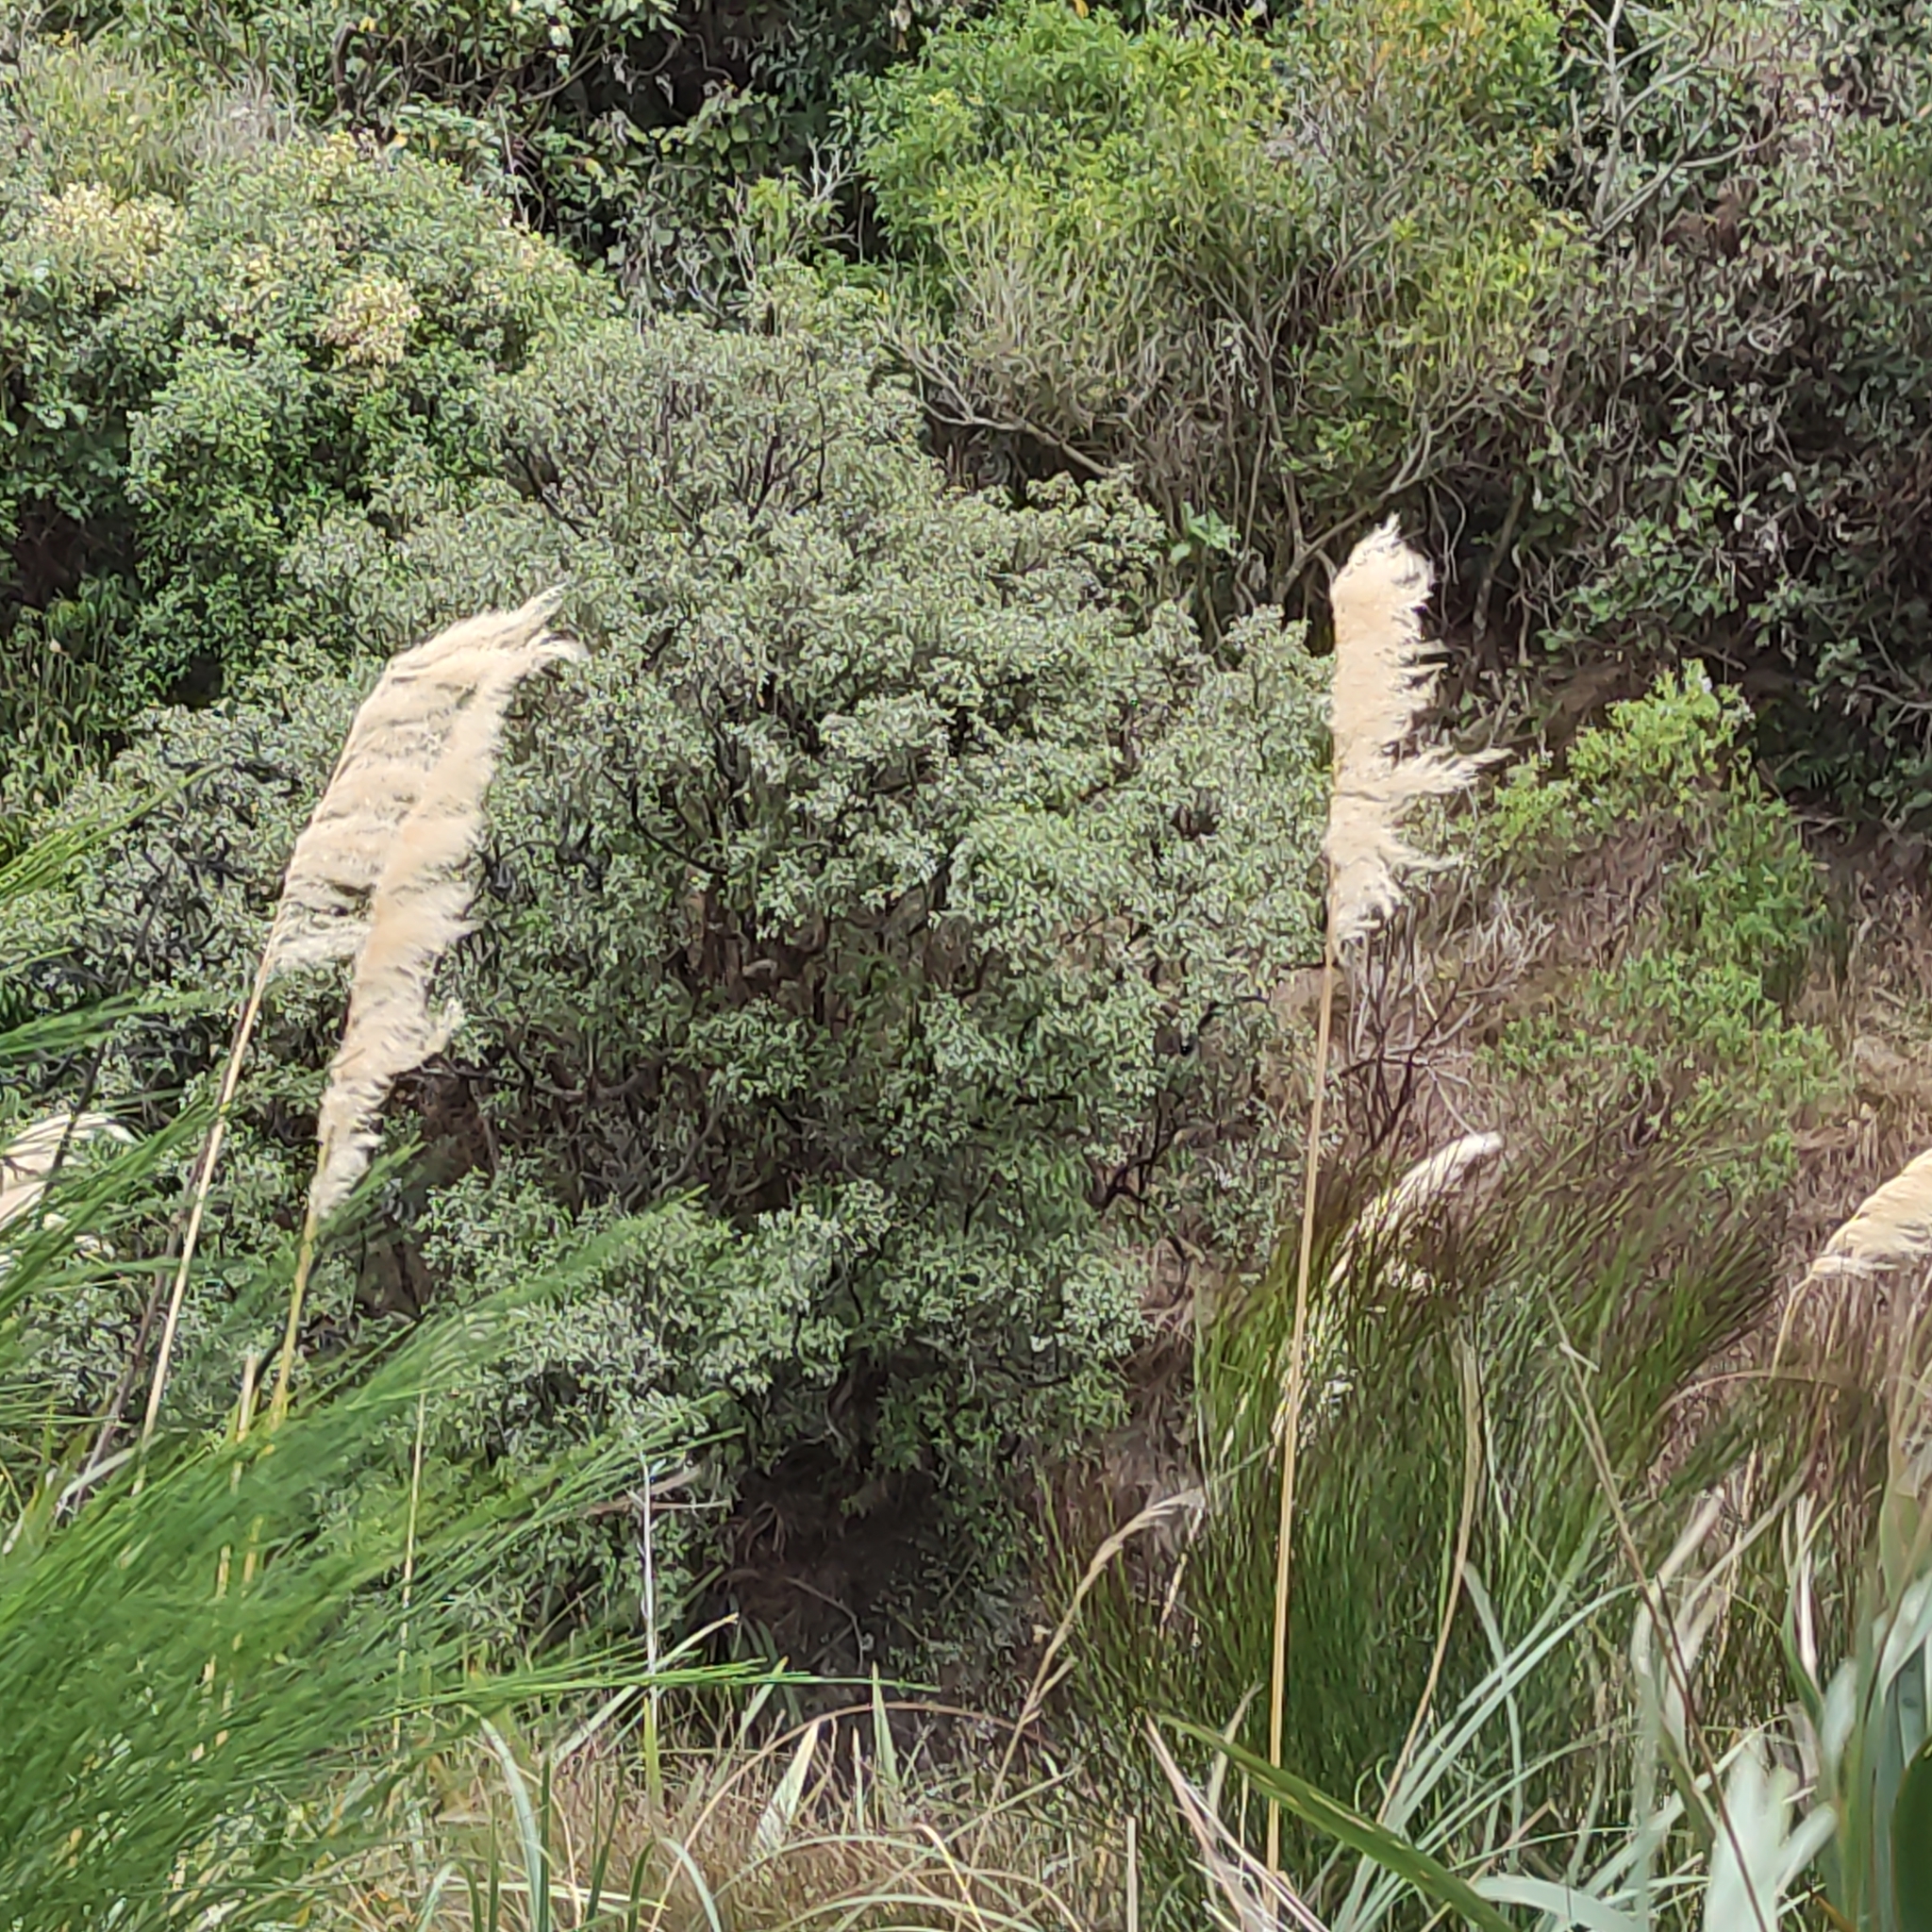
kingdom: Plantae
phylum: Tracheophyta
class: Liliopsida
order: Poales
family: Poaceae
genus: Austroderia
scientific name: Austroderia richardii
